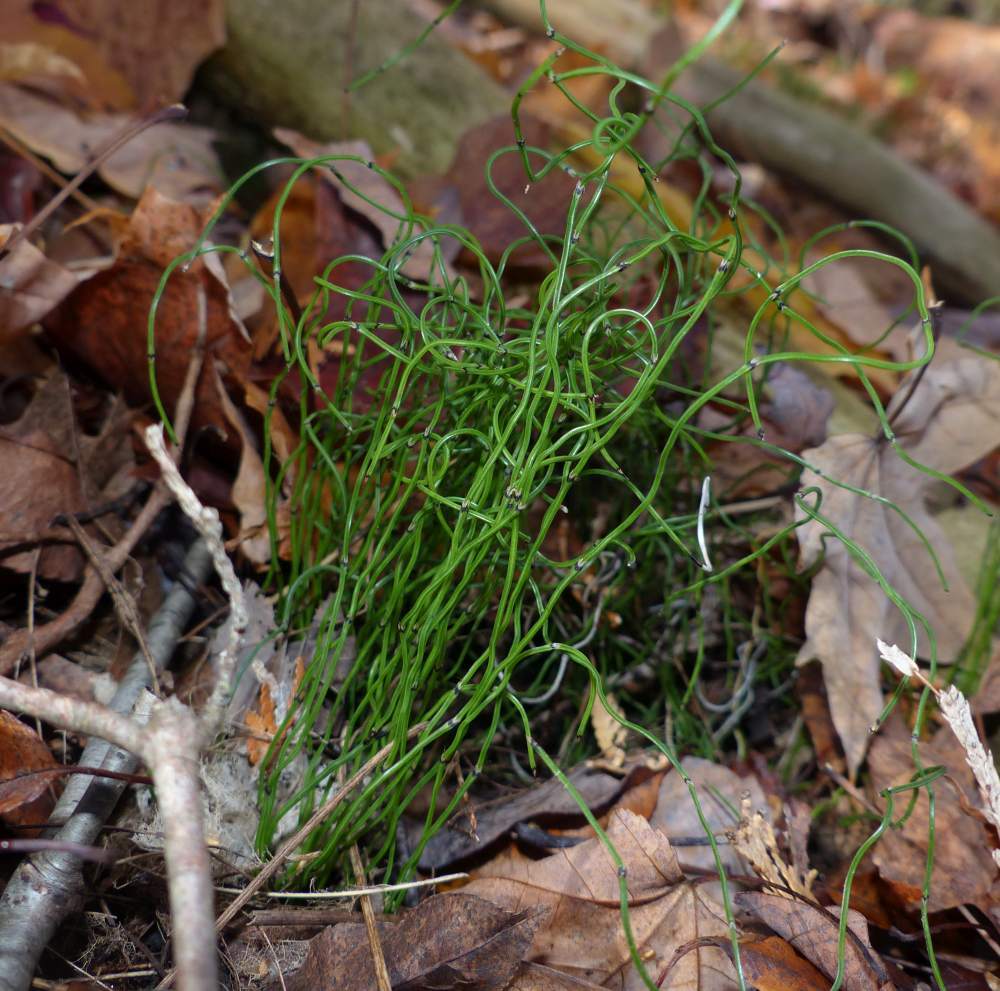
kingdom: Plantae
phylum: Tracheophyta
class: Polypodiopsida
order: Equisetales
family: Equisetaceae
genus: Equisetum
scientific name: Equisetum scirpoides
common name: Delicate horsetail
